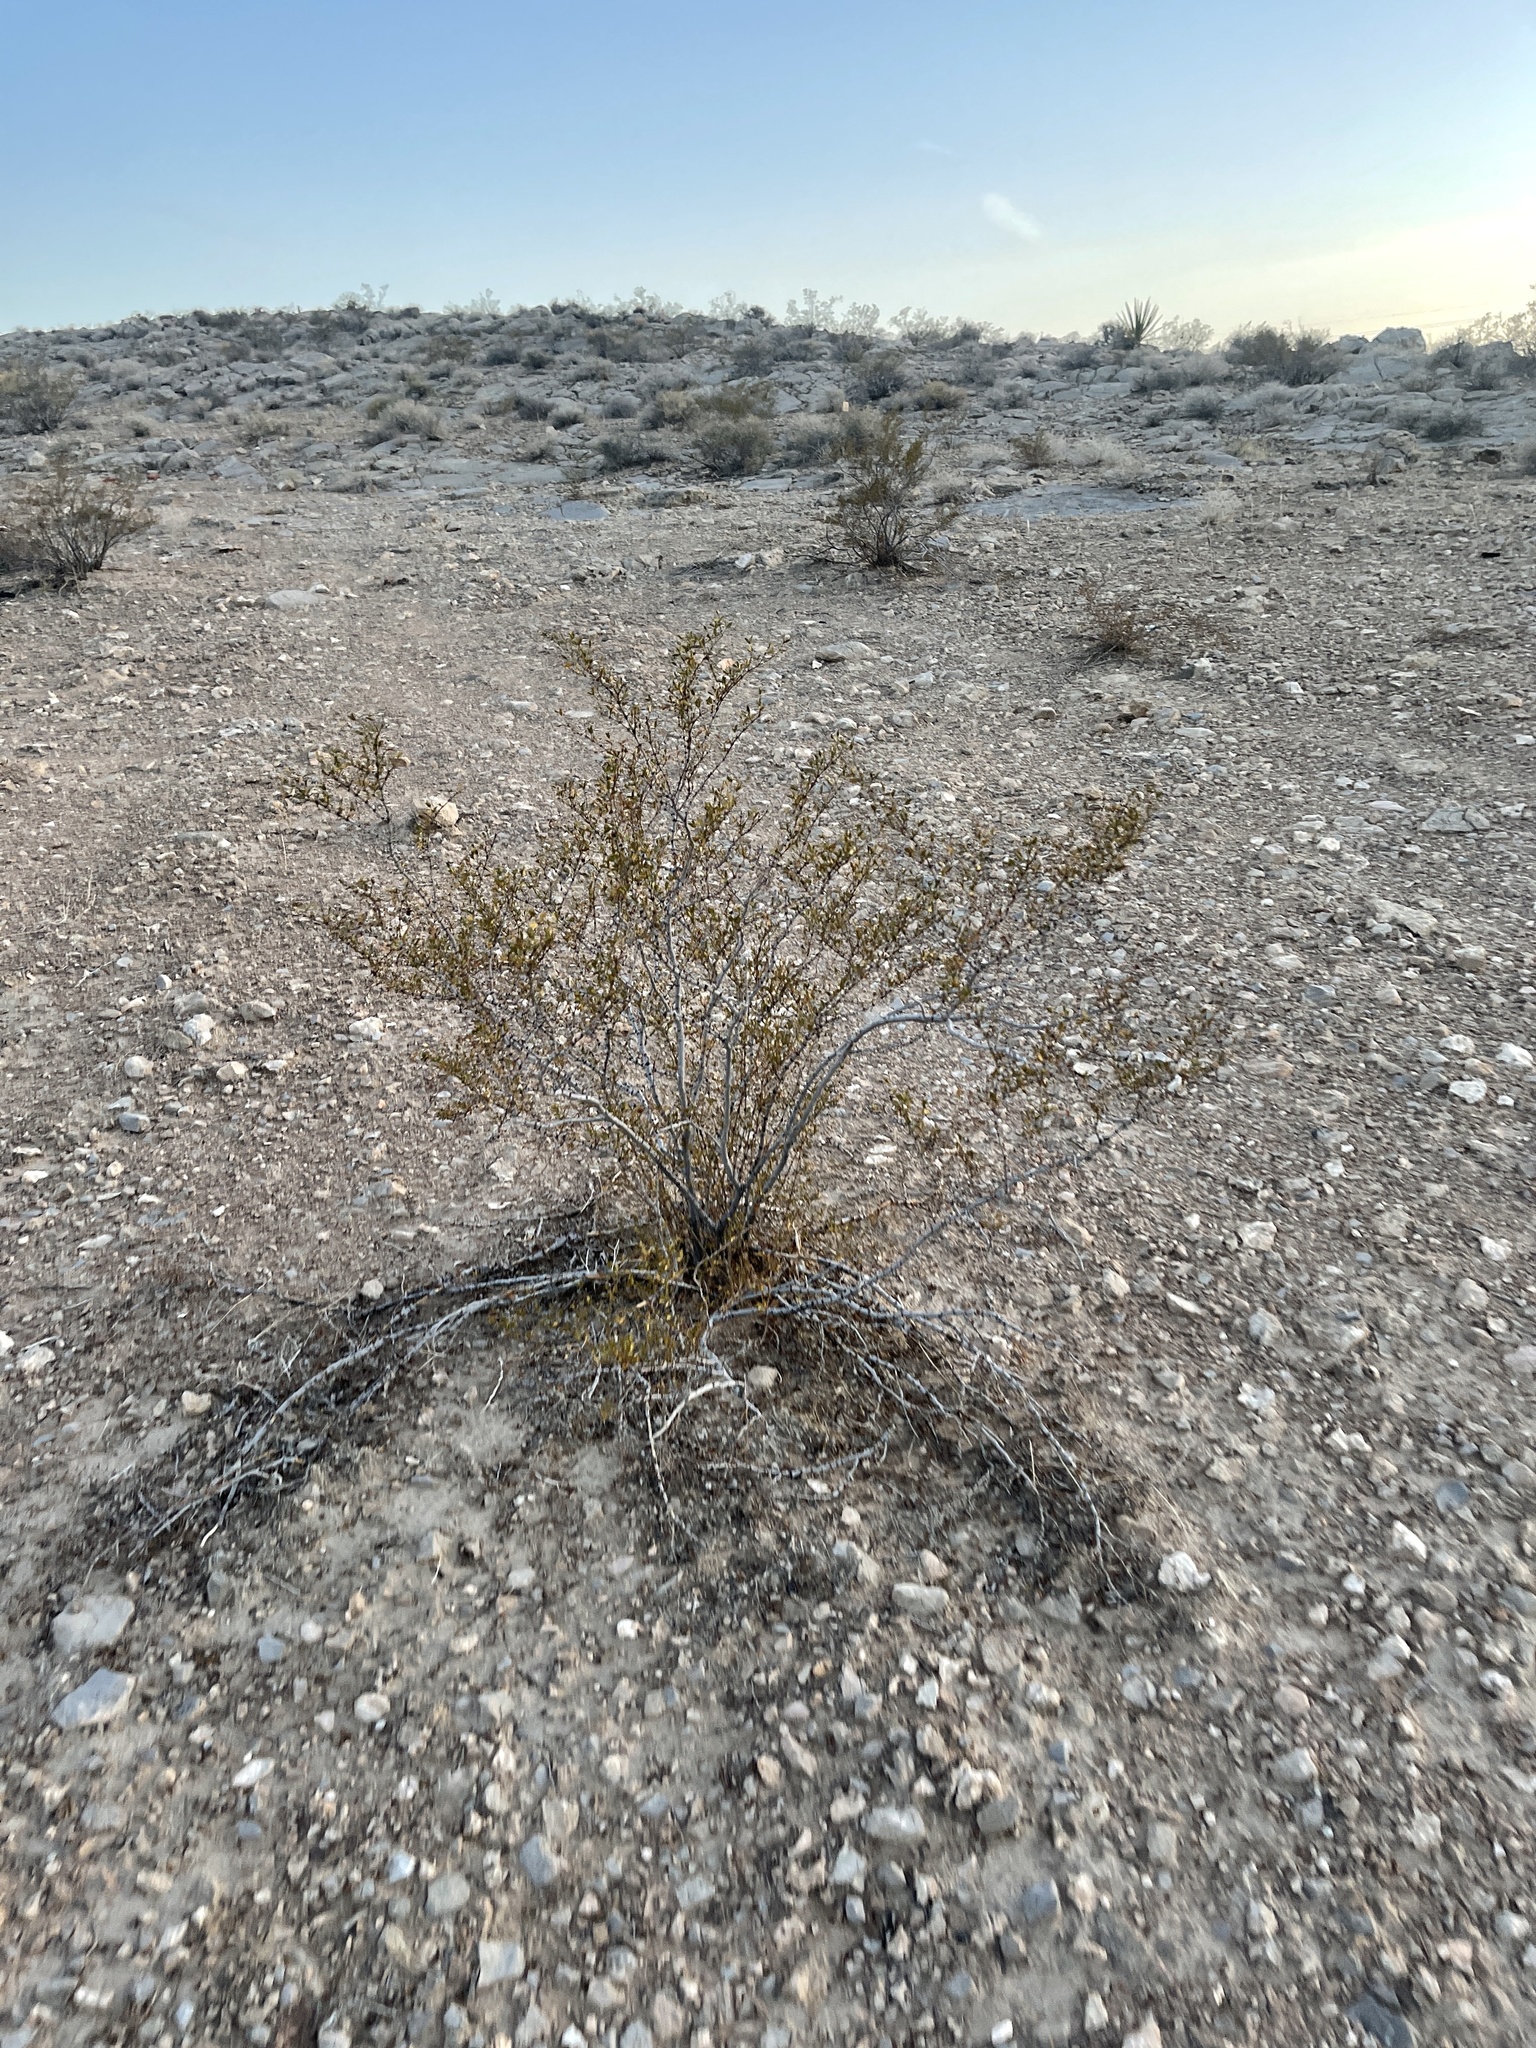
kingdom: Plantae
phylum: Tracheophyta
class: Magnoliopsida
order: Zygophyllales
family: Zygophyllaceae
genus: Larrea
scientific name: Larrea tridentata
